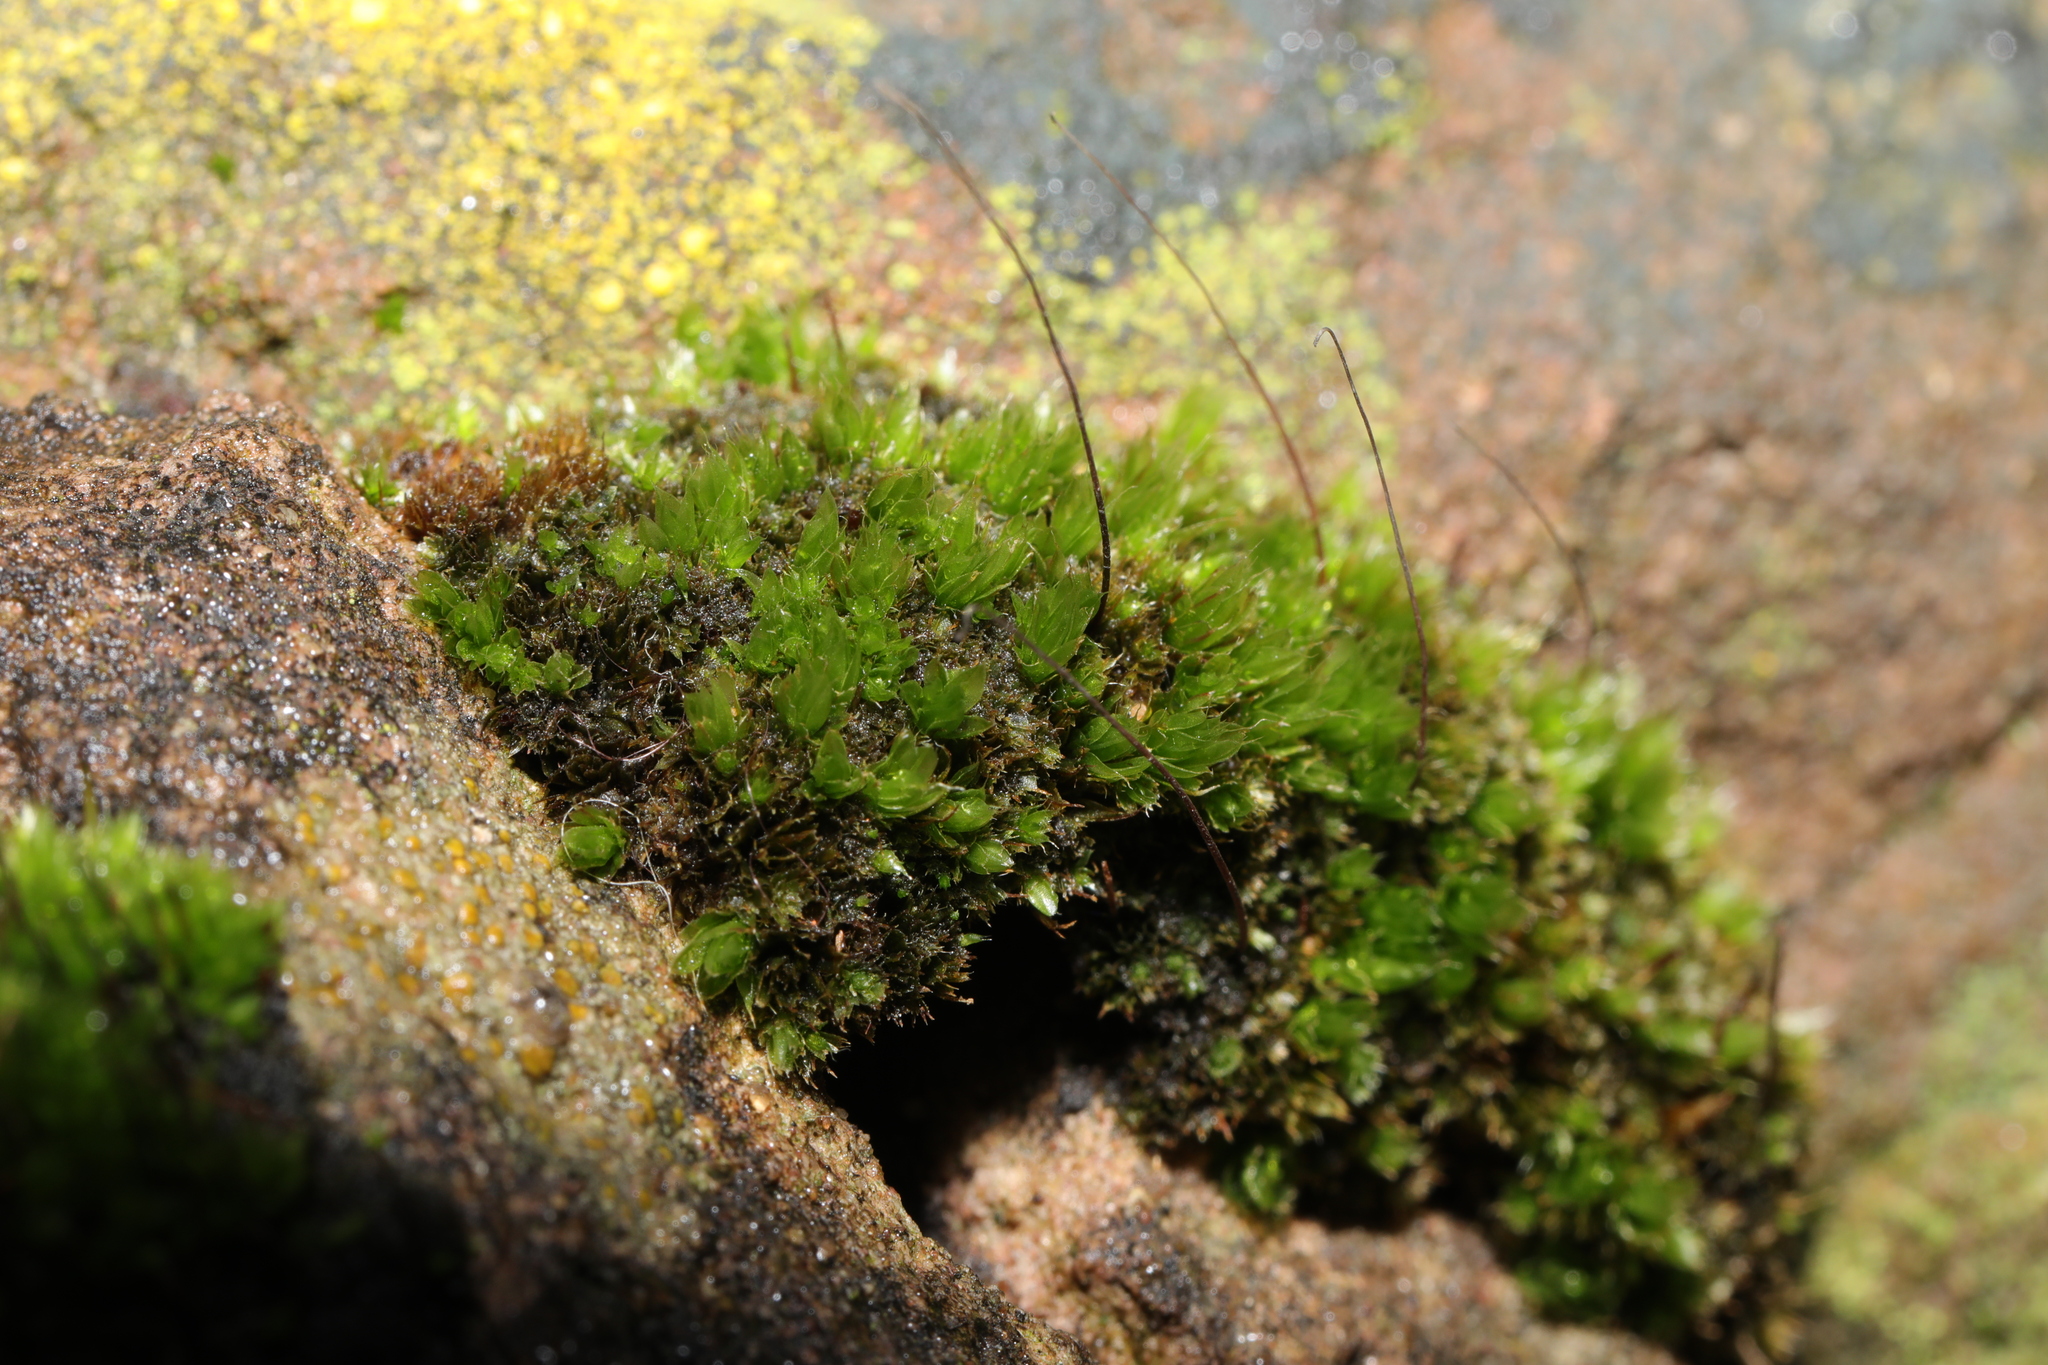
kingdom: Plantae
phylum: Bryophyta
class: Bryopsida
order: Bryales
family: Bryaceae
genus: Rosulabryum
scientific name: Rosulabryum capillare
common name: Capillary thread-moss
